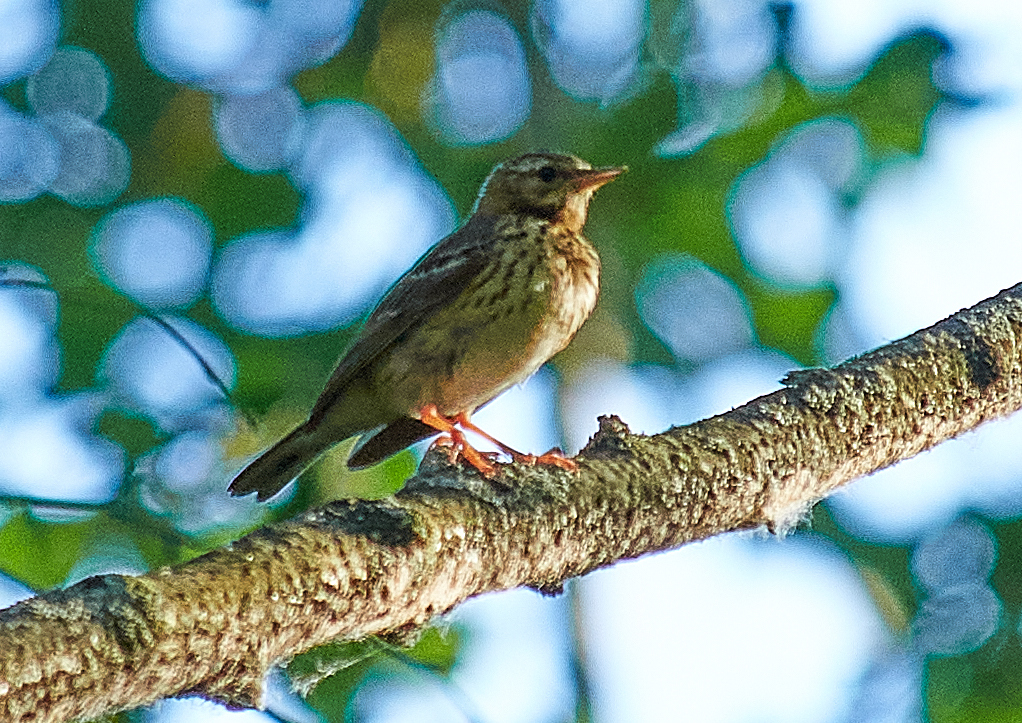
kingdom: Animalia
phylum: Chordata
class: Aves
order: Passeriformes
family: Motacillidae
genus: Anthus
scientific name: Anthus trivialis
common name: Tree pipit
